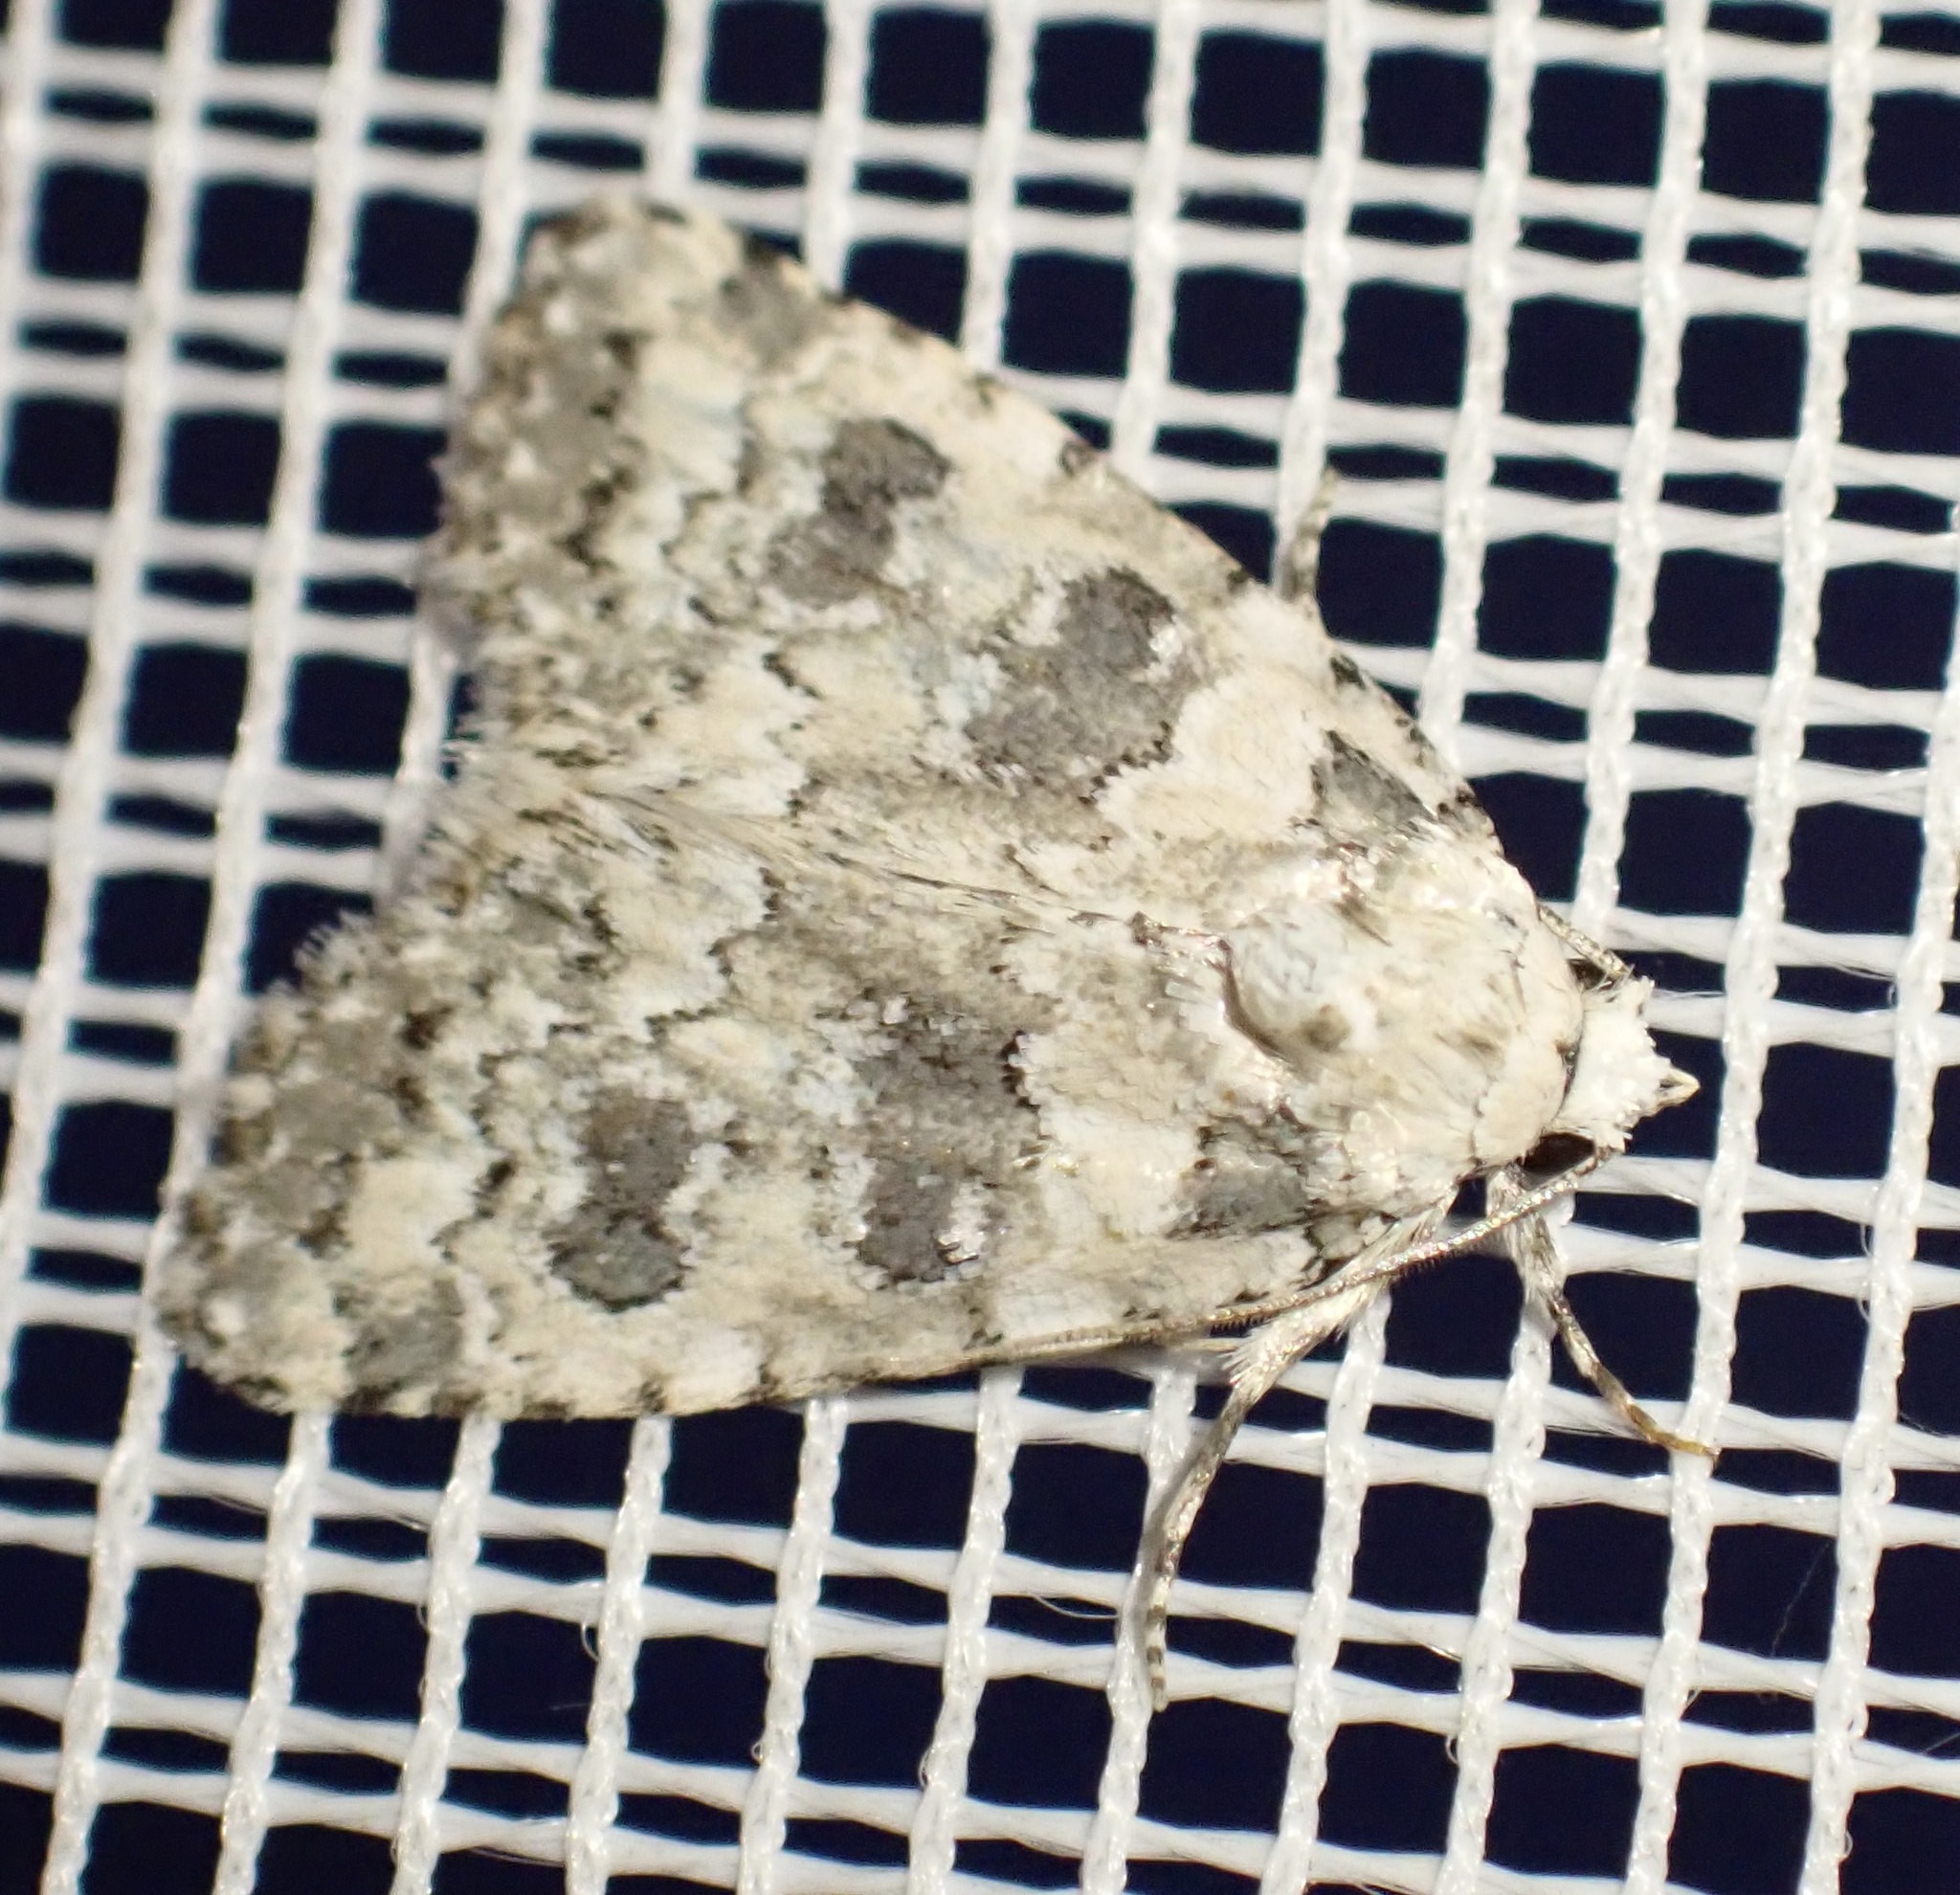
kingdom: Animalia
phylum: Arthropoda
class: Insecta
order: Lepidoptera
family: Noctuidae
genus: Bryophila
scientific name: Bryophila domestica
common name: Marbled beauty
